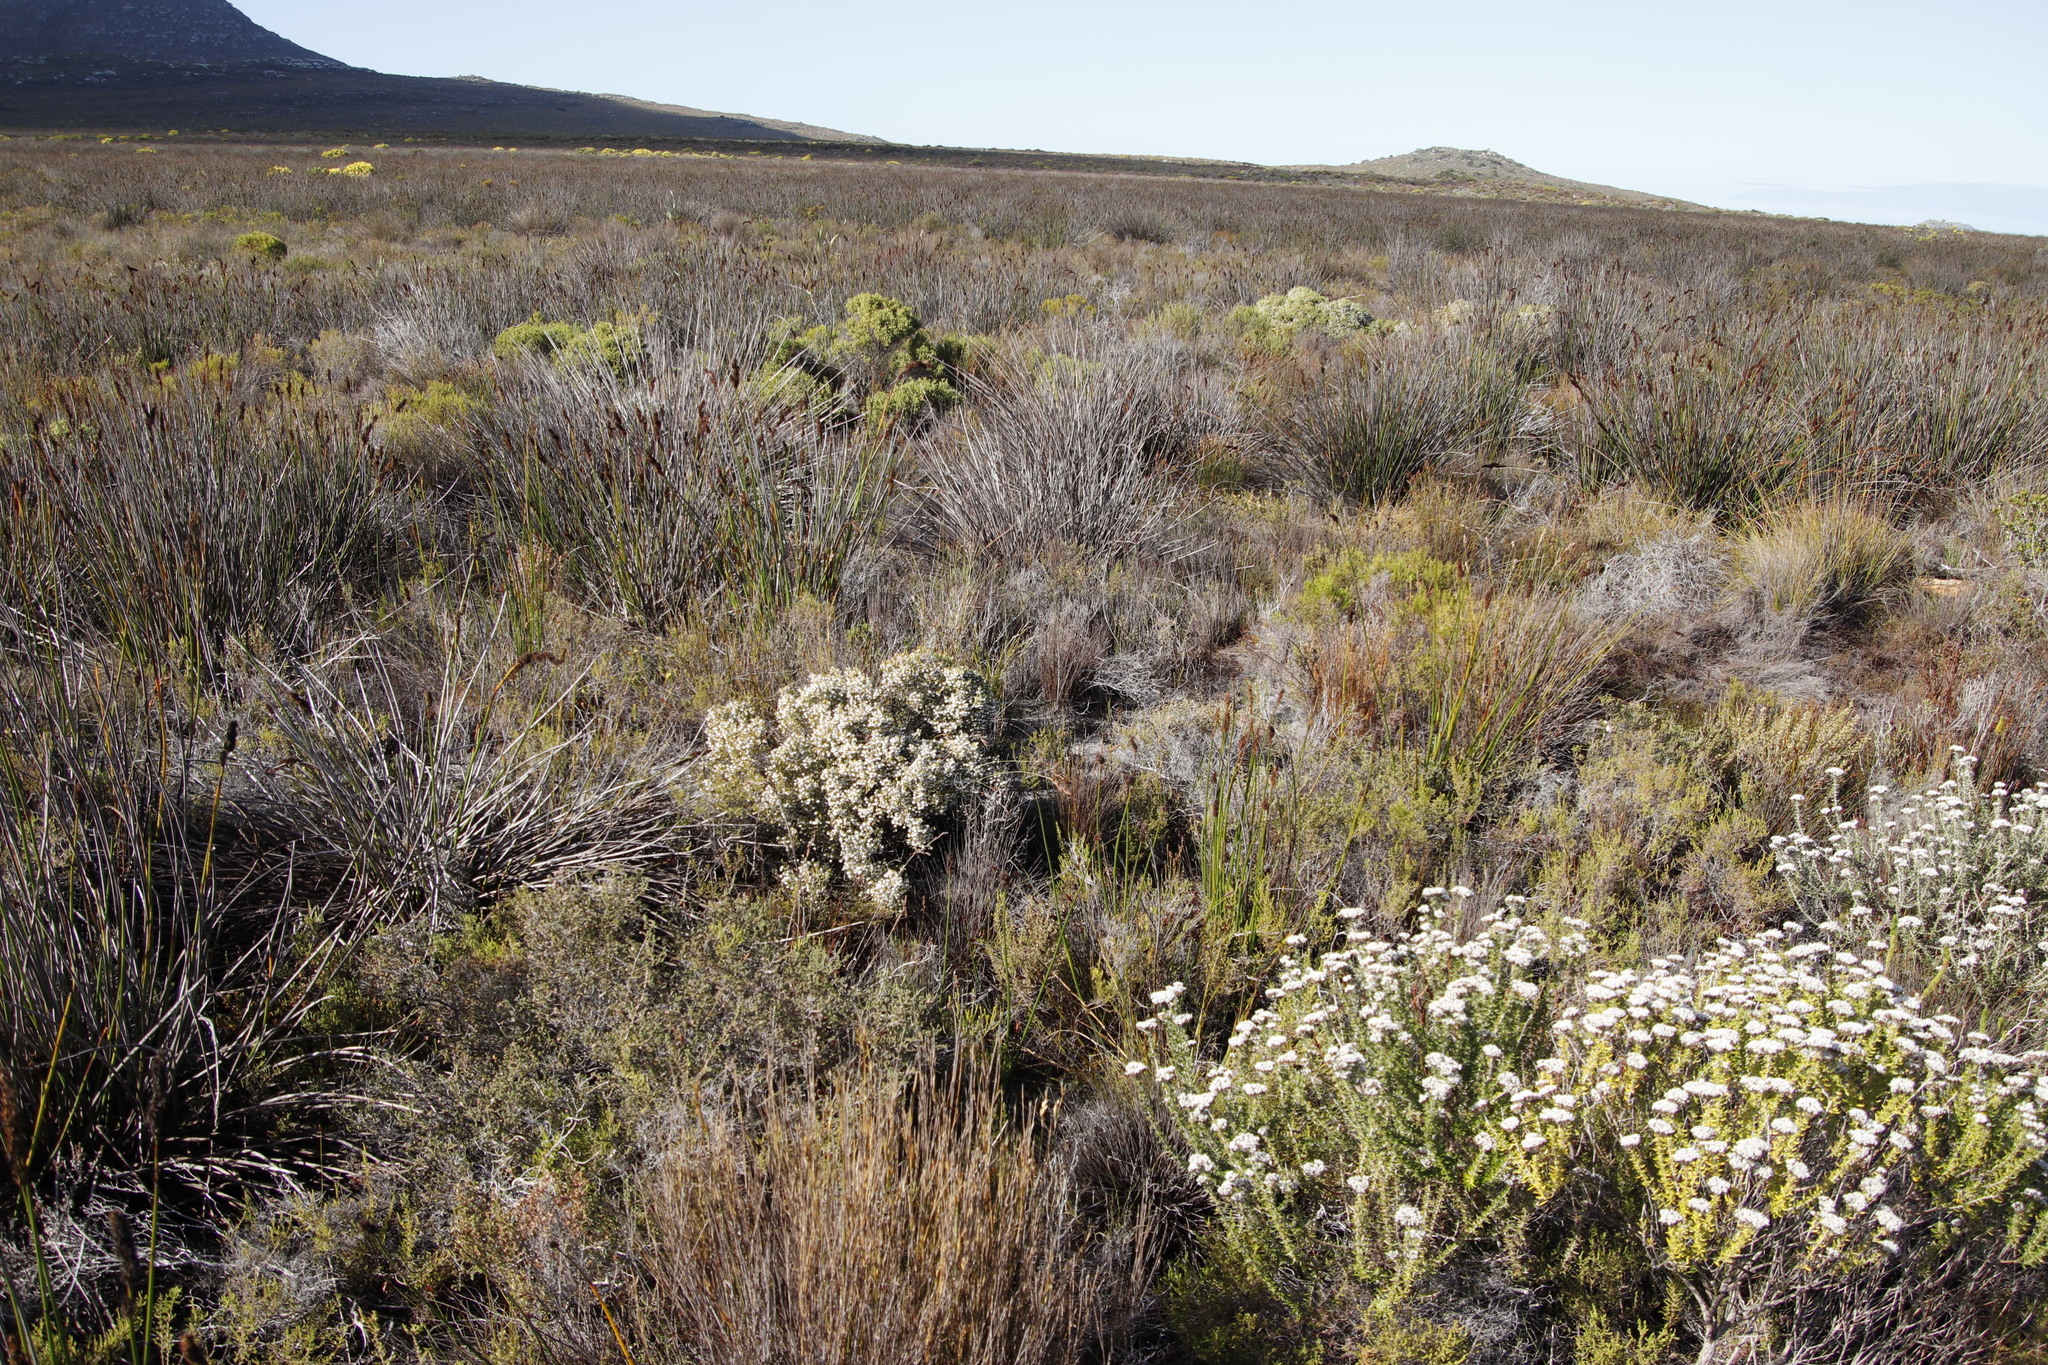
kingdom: Plantae
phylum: Tracheophyta
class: Magnoliopsida
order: Ericales
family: Ericaceae
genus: Erica
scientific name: Erica capensis
